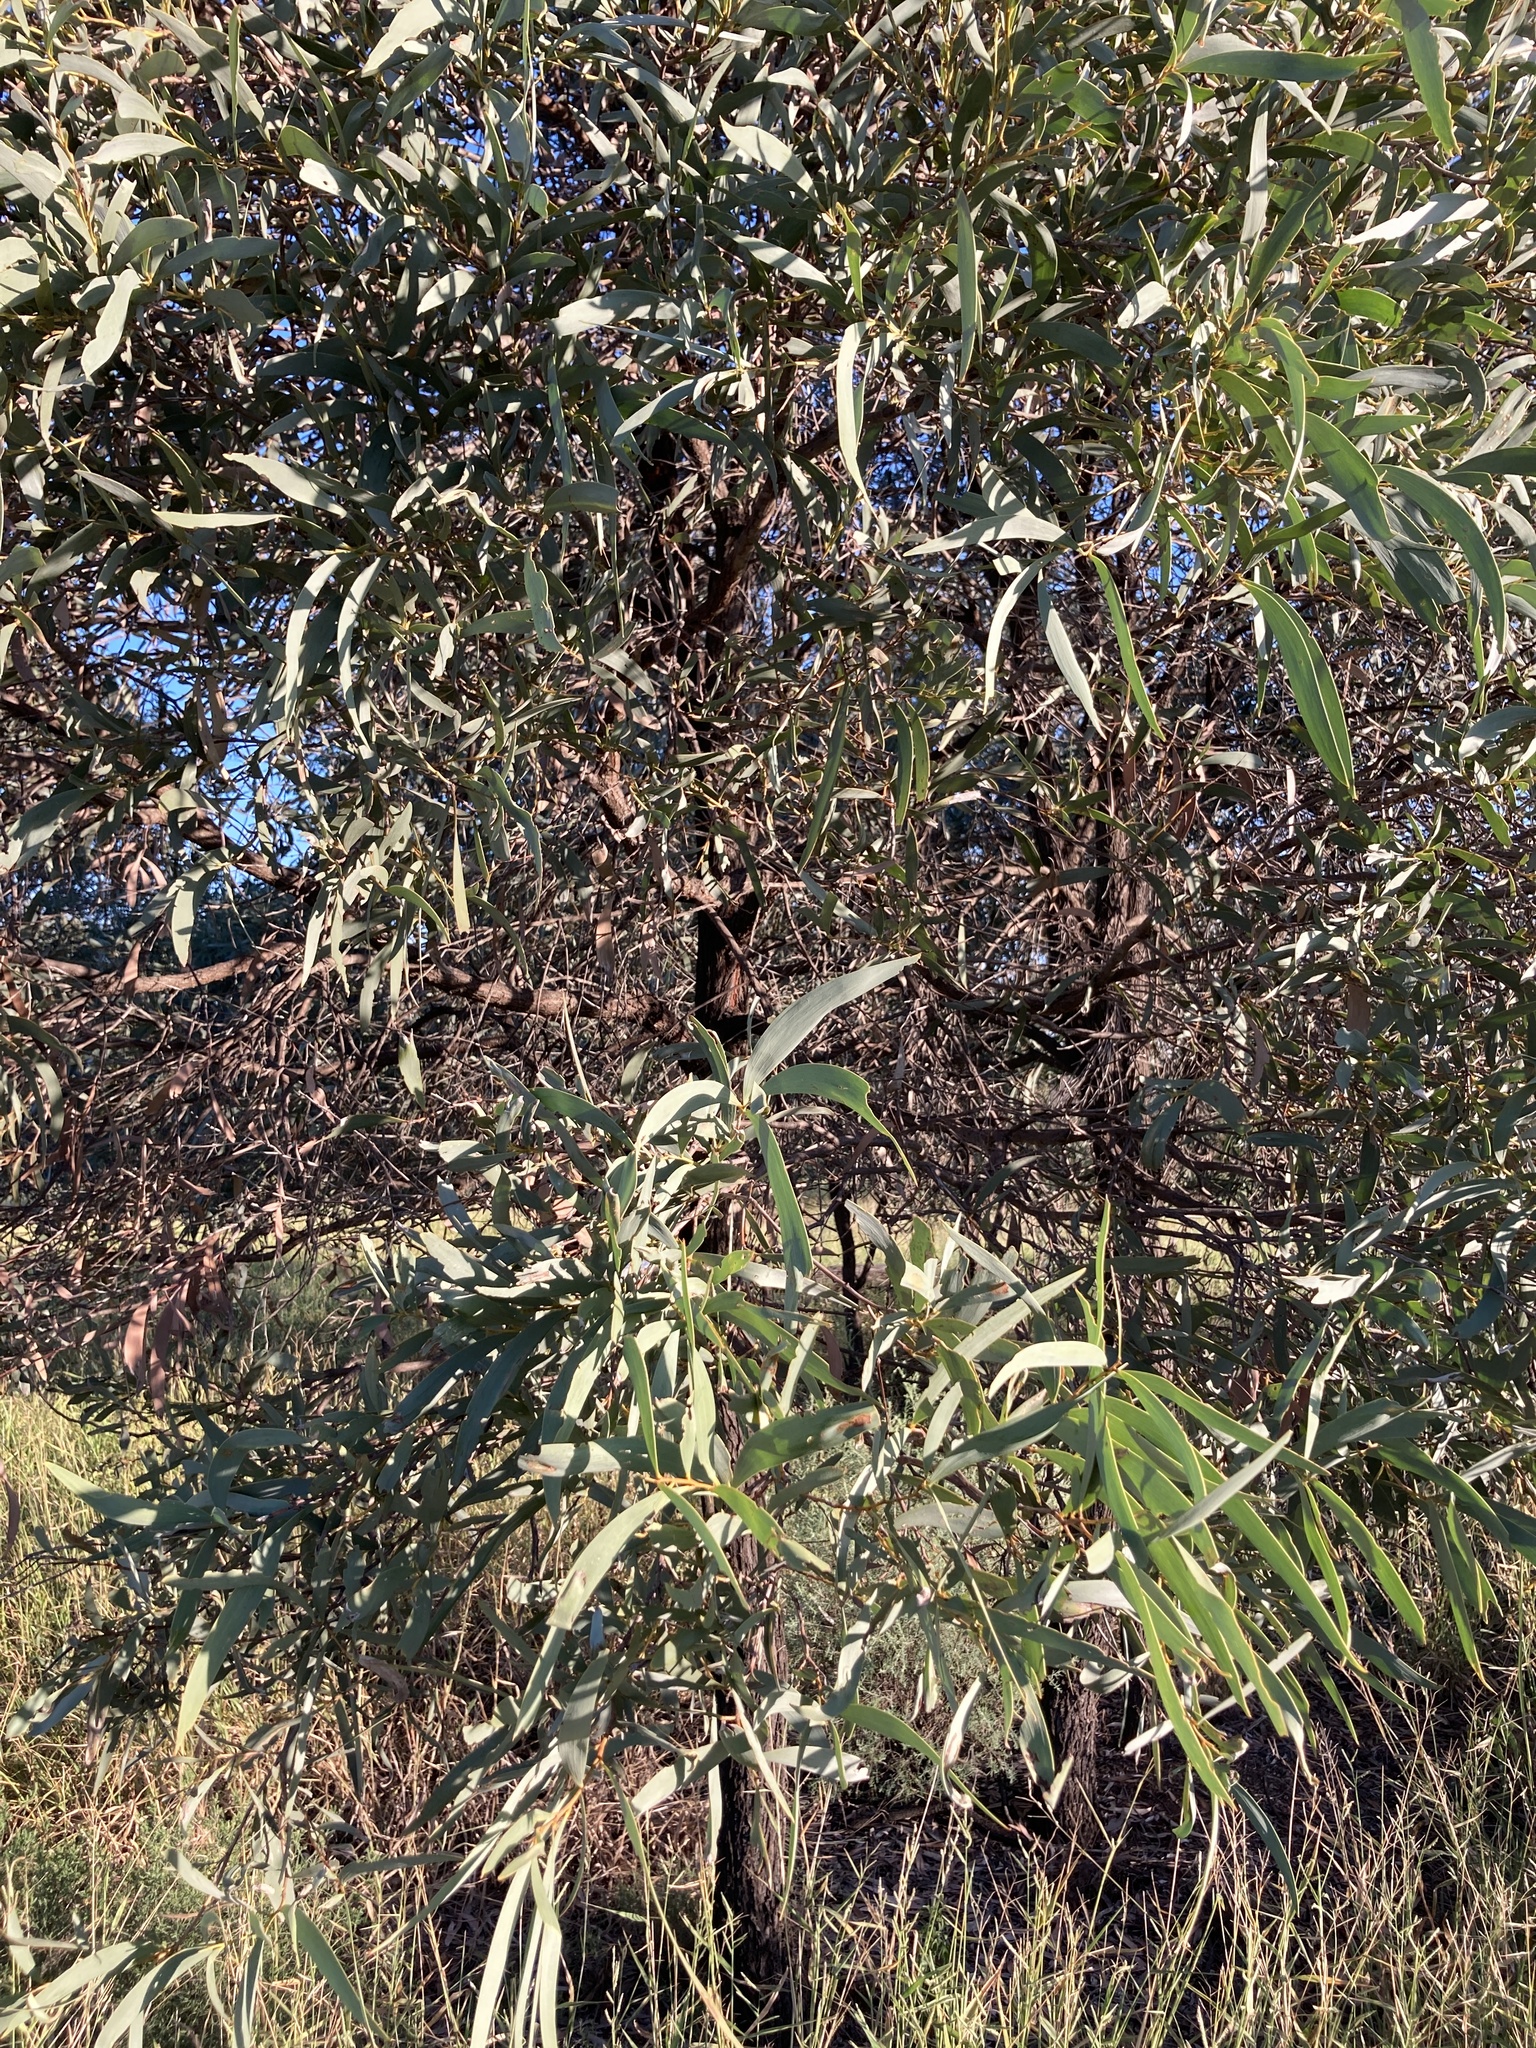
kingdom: Plantae
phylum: Tracheophyta
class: Magnoliopsida
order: Fabales
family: Fabaceae
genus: Acacia
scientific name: Acacia harpophylla
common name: Brigalow
